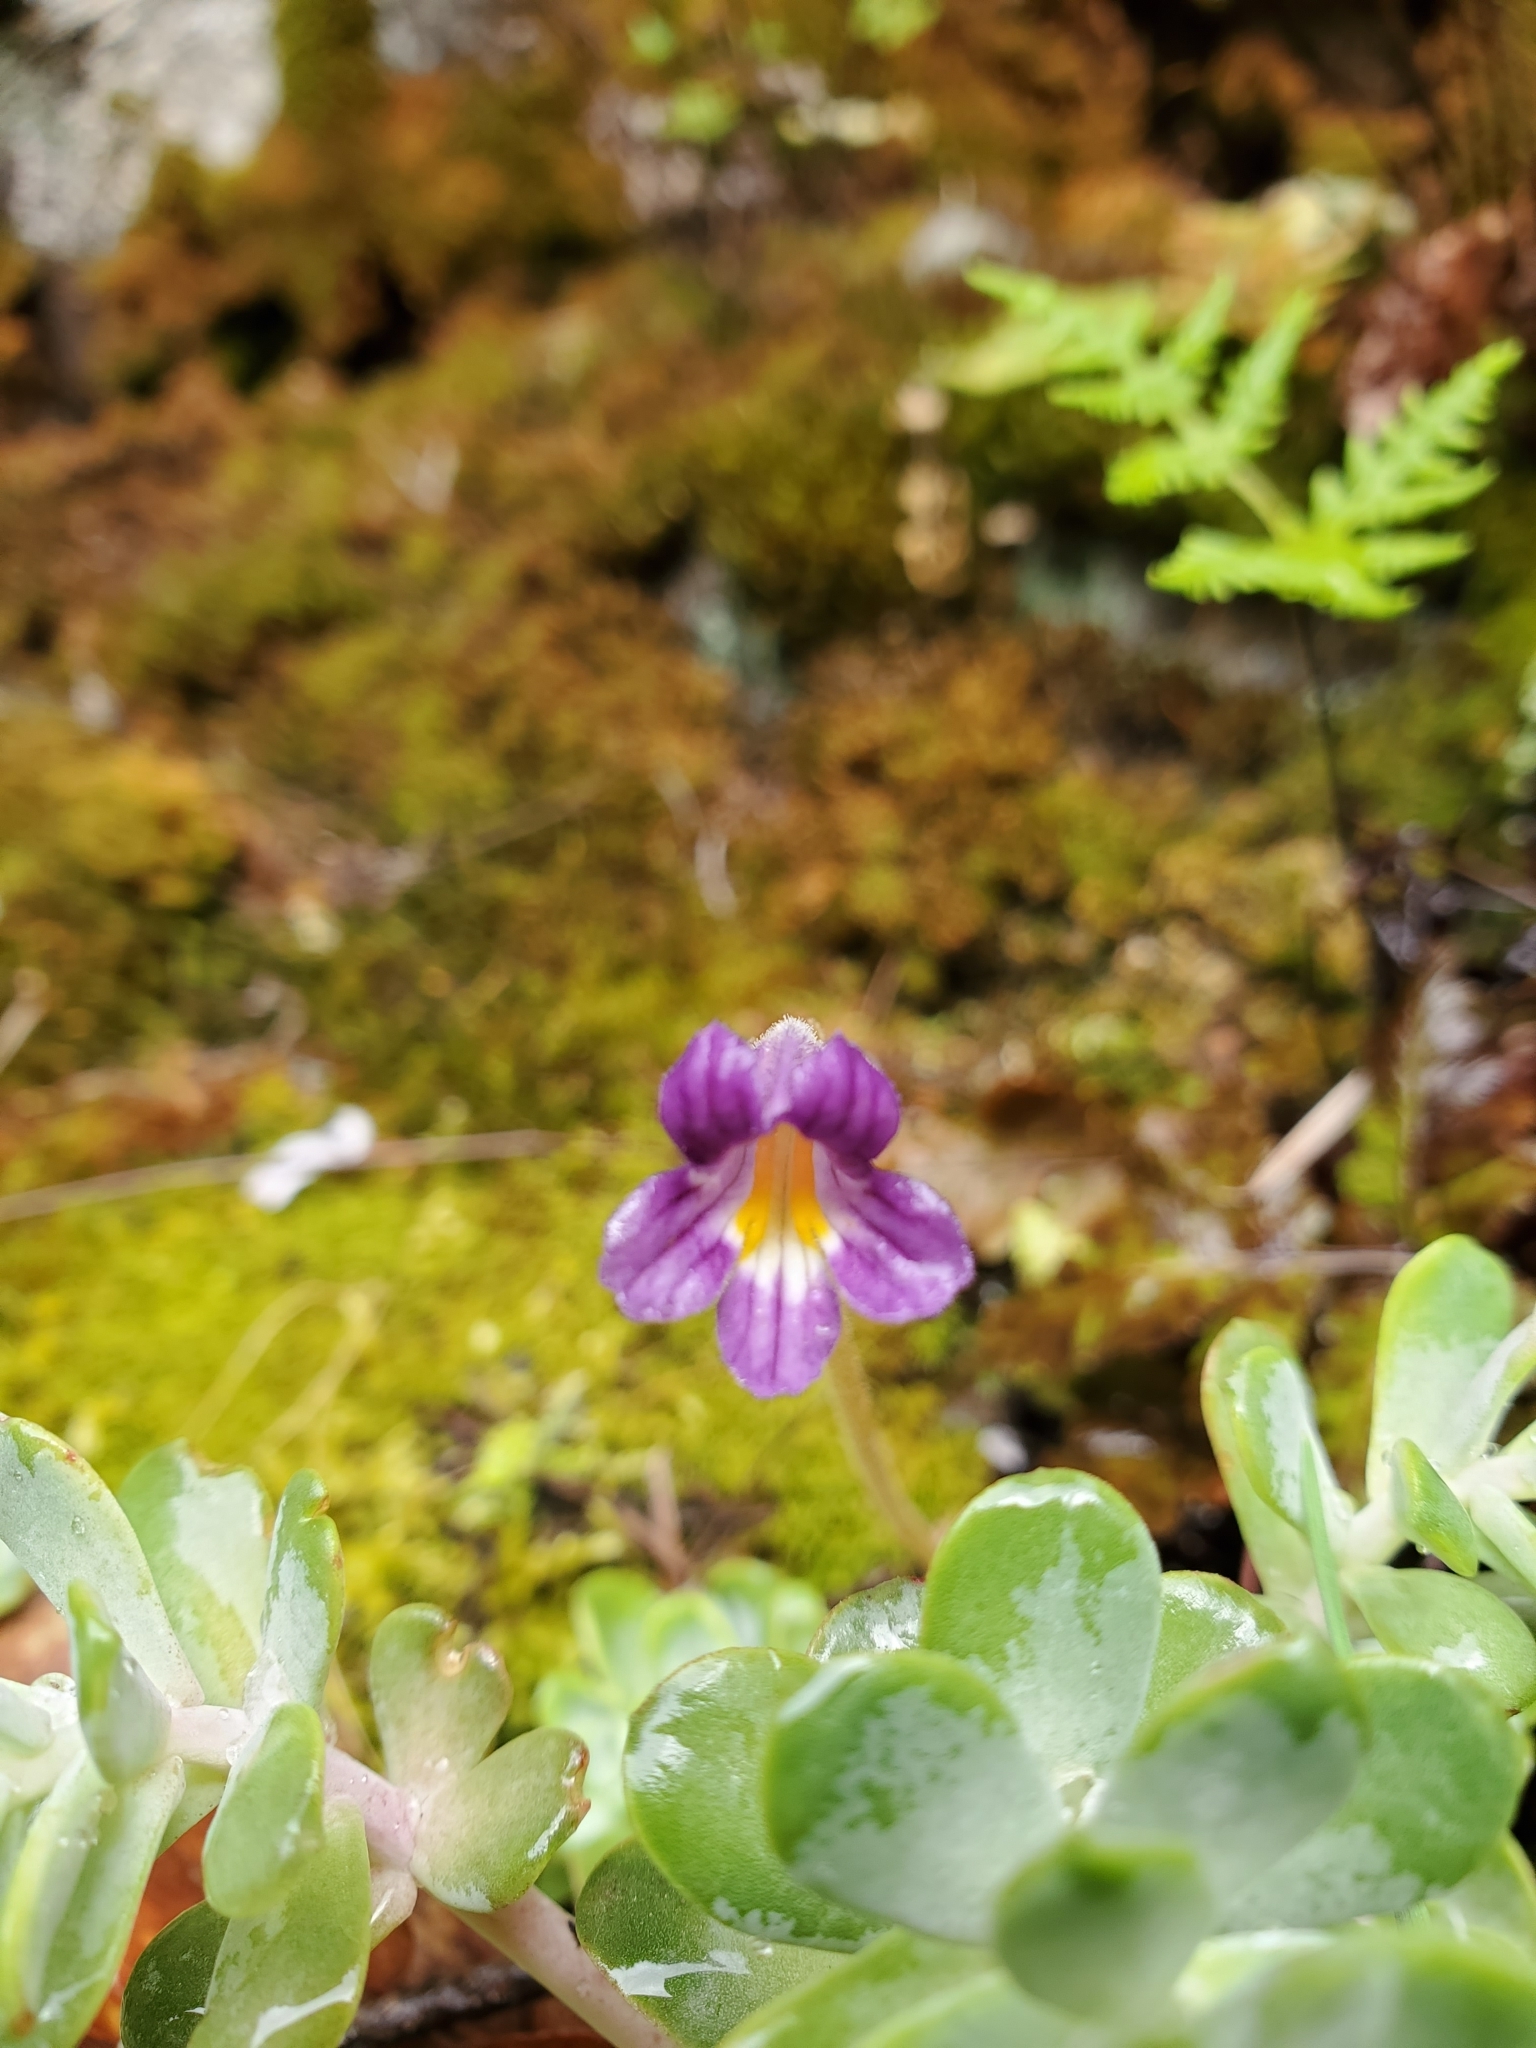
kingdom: Plantae
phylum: Tracheophyta
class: Magnoliopsida
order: Lamiales
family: Orobanchaceae
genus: Aphyllon
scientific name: Aphyllon uniflorum
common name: One-flowered broomrape
